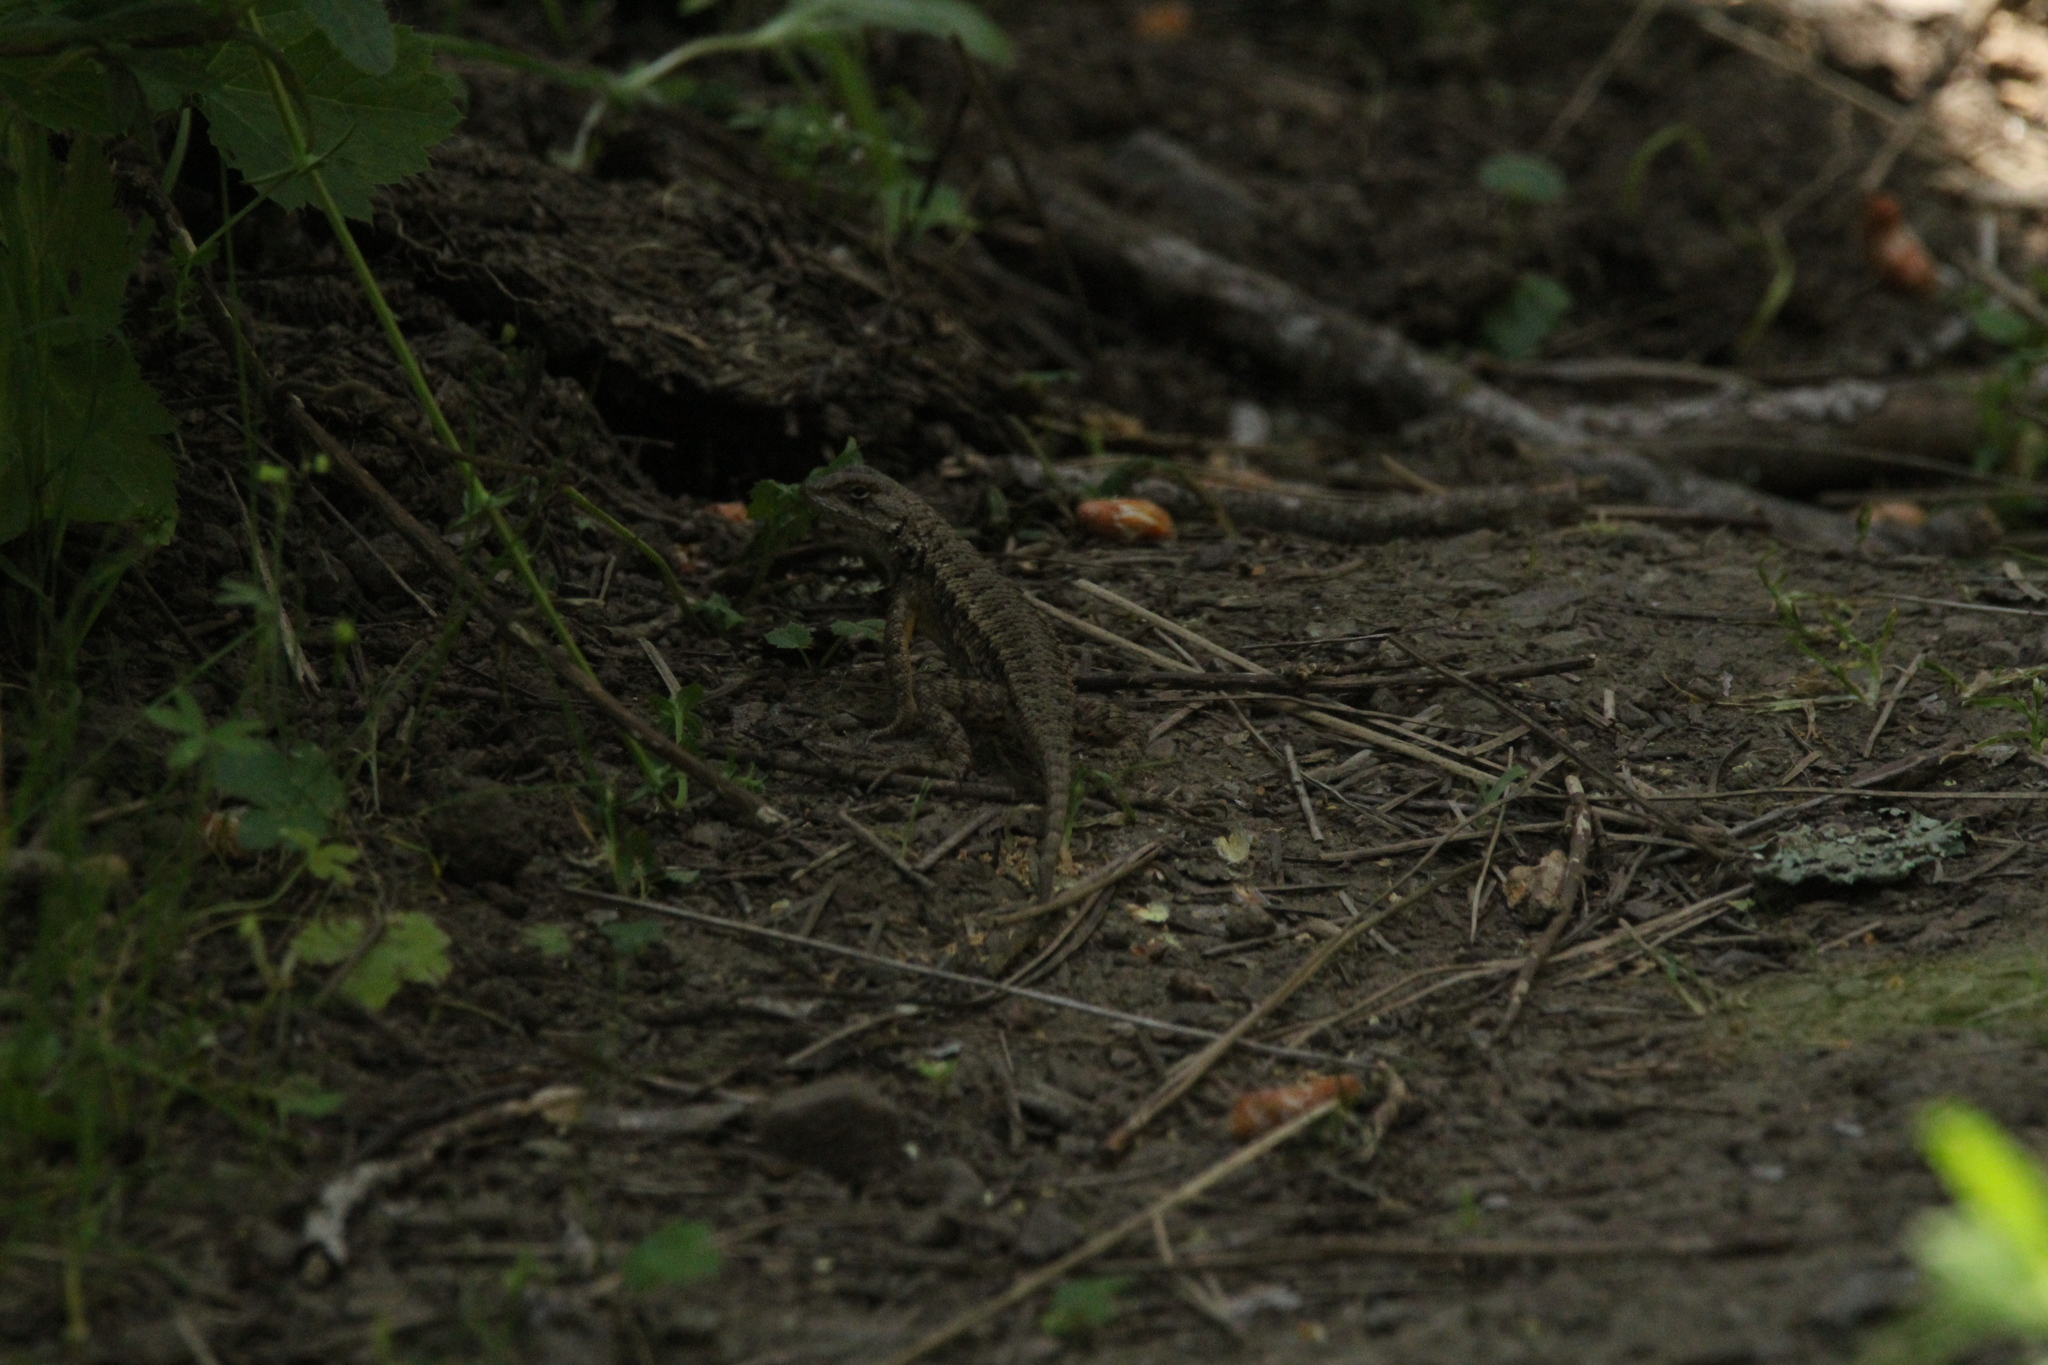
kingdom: Animalia
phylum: Chordata
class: Squamata
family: Phrynosomatidae
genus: Sceloporus
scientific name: Sceloporus occidentalis
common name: Western fence lizard
